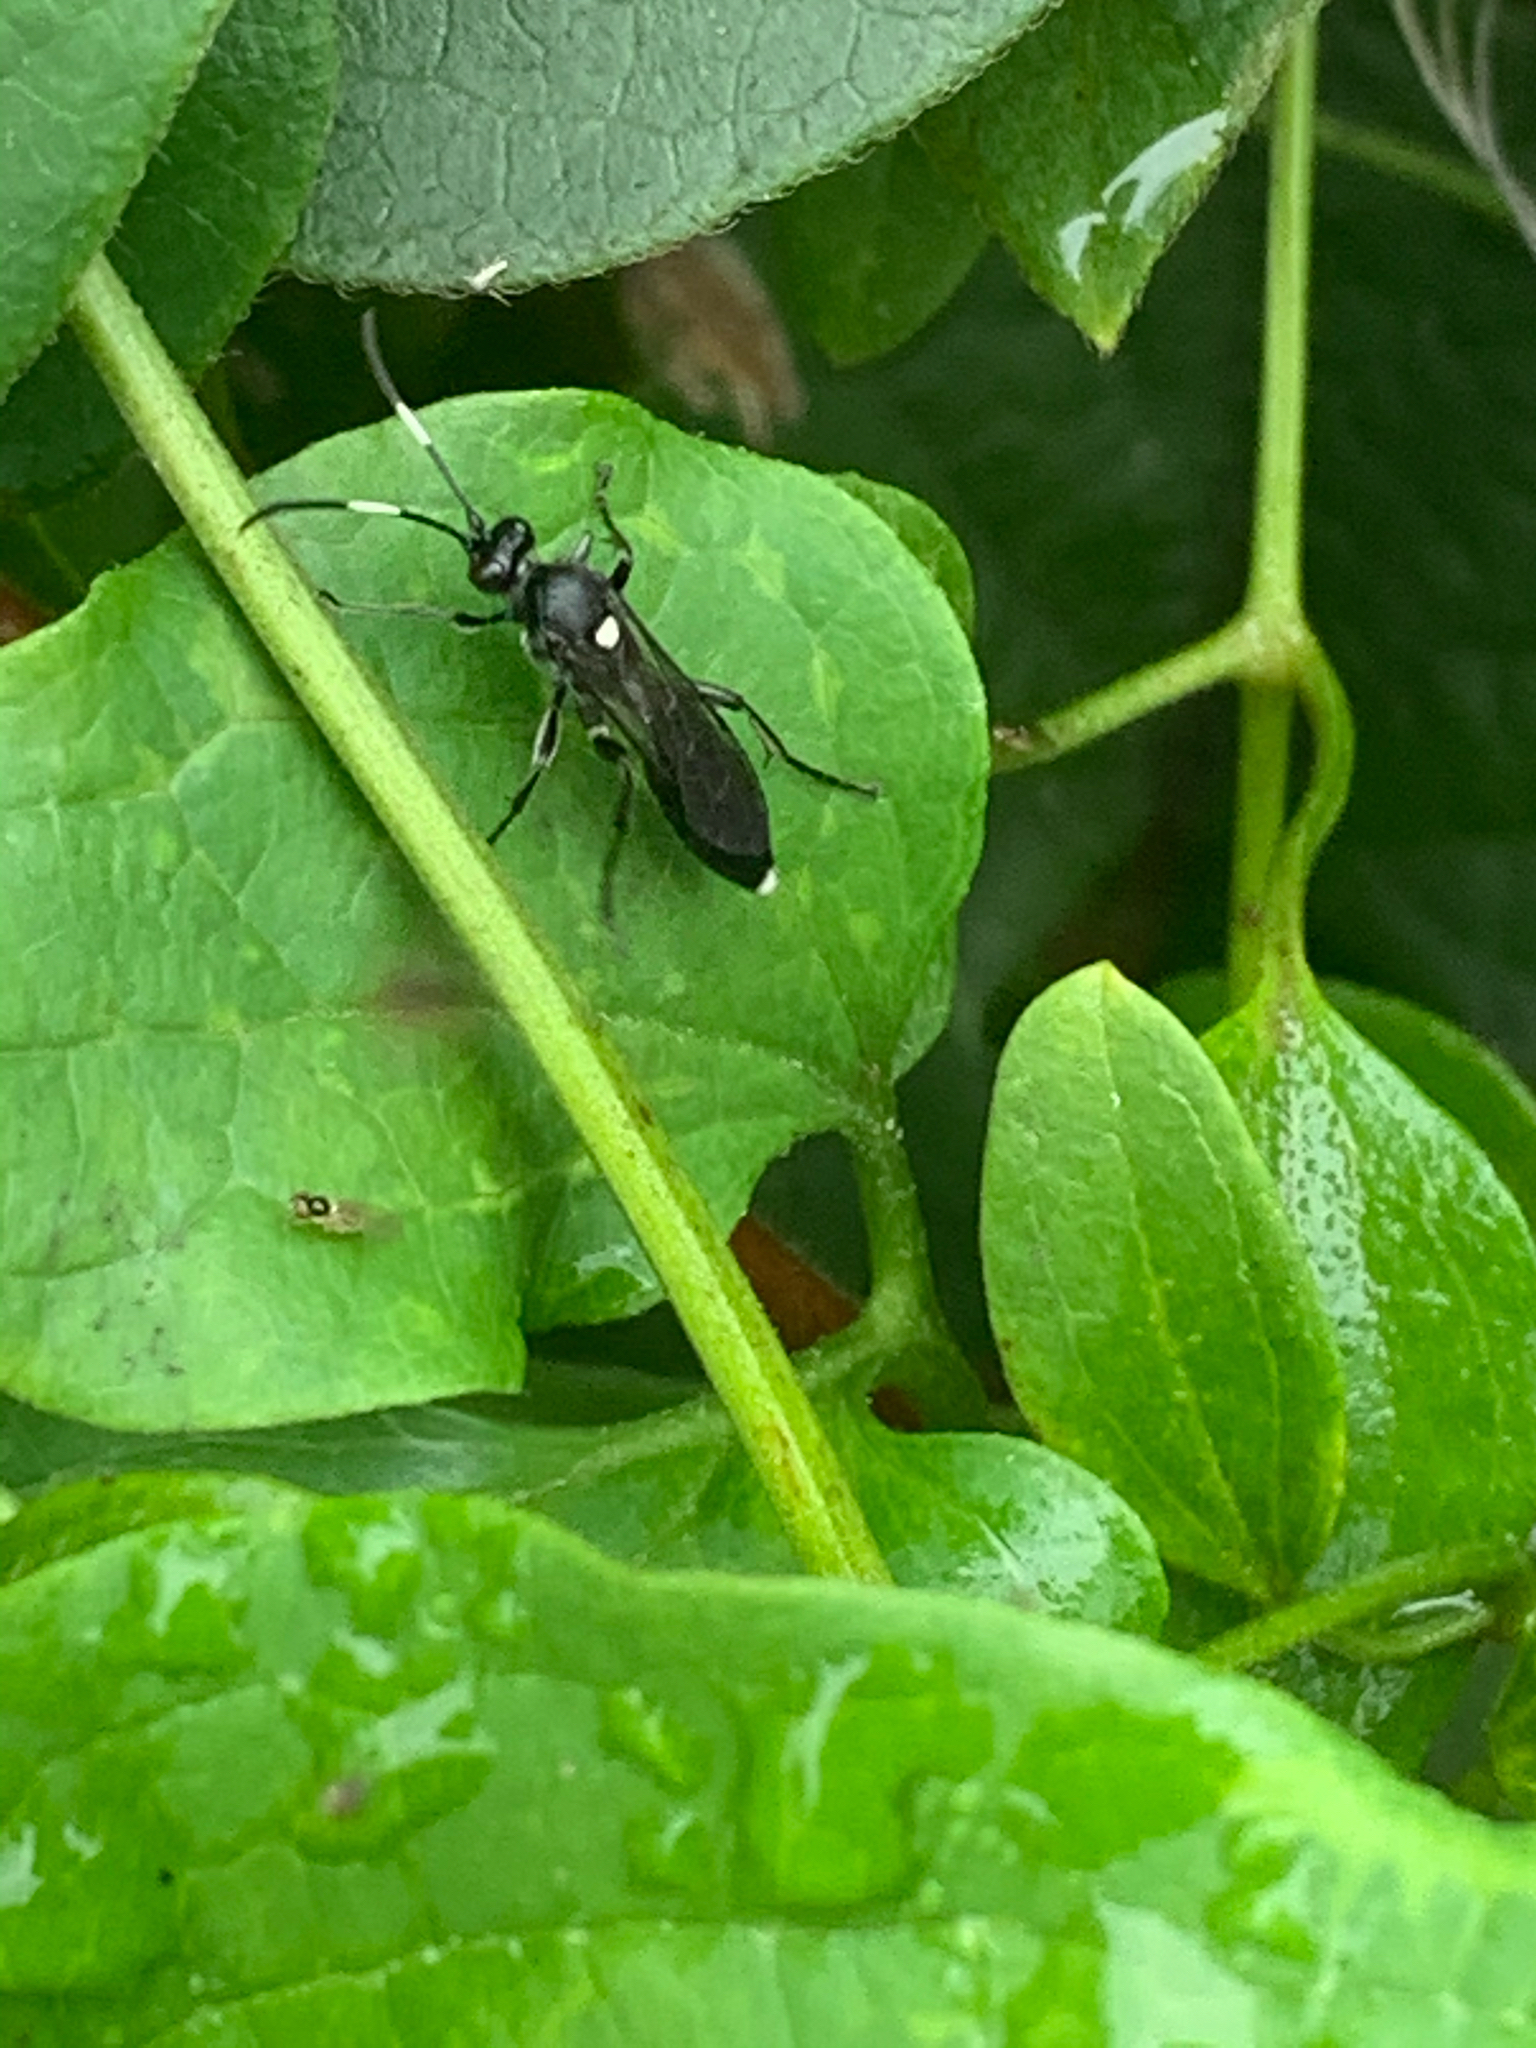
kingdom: Animalia
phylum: Arthropoda
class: Insecta
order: Hymenoptera
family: Ichneumonidae
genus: Vulgichneumon
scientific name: Vulgichneumon brevicinctor
